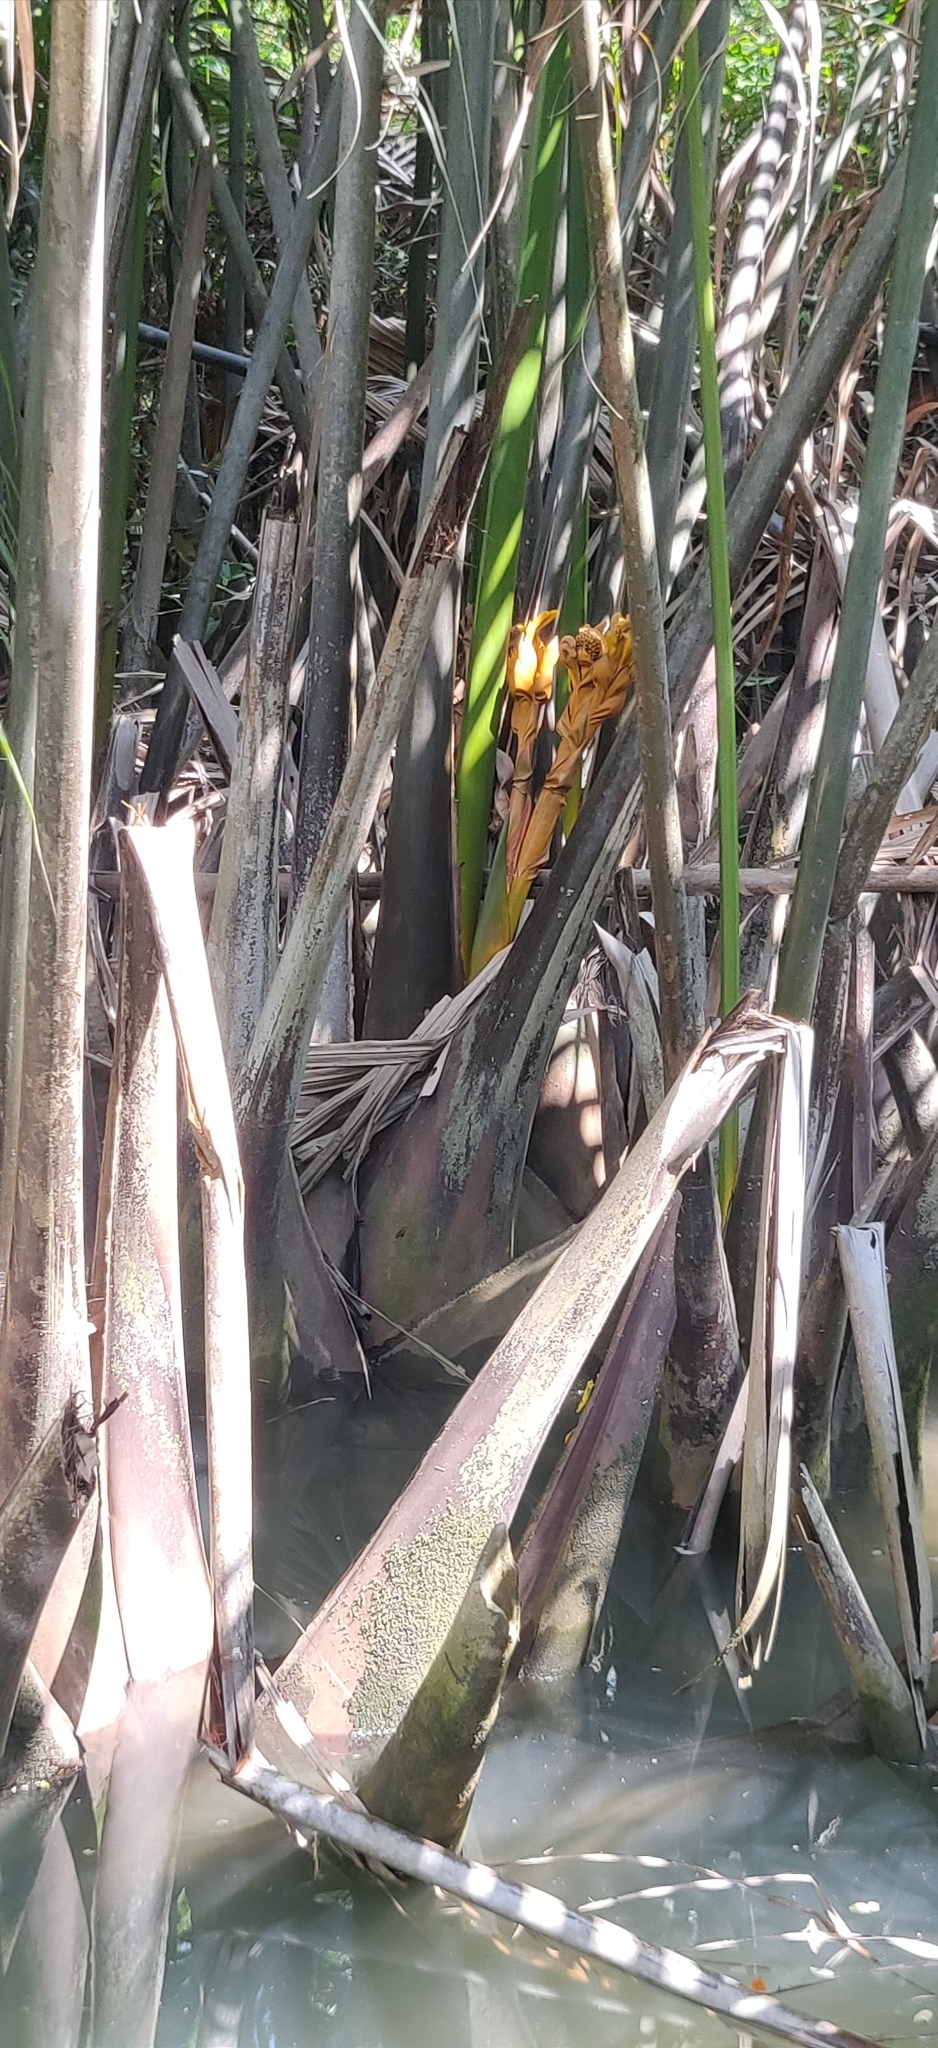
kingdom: Plantae
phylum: Tracheophyta
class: Liliopsida
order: Arecales
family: Arecaceae
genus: Nypa
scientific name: Nypa fruticans
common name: Mangrove palm
